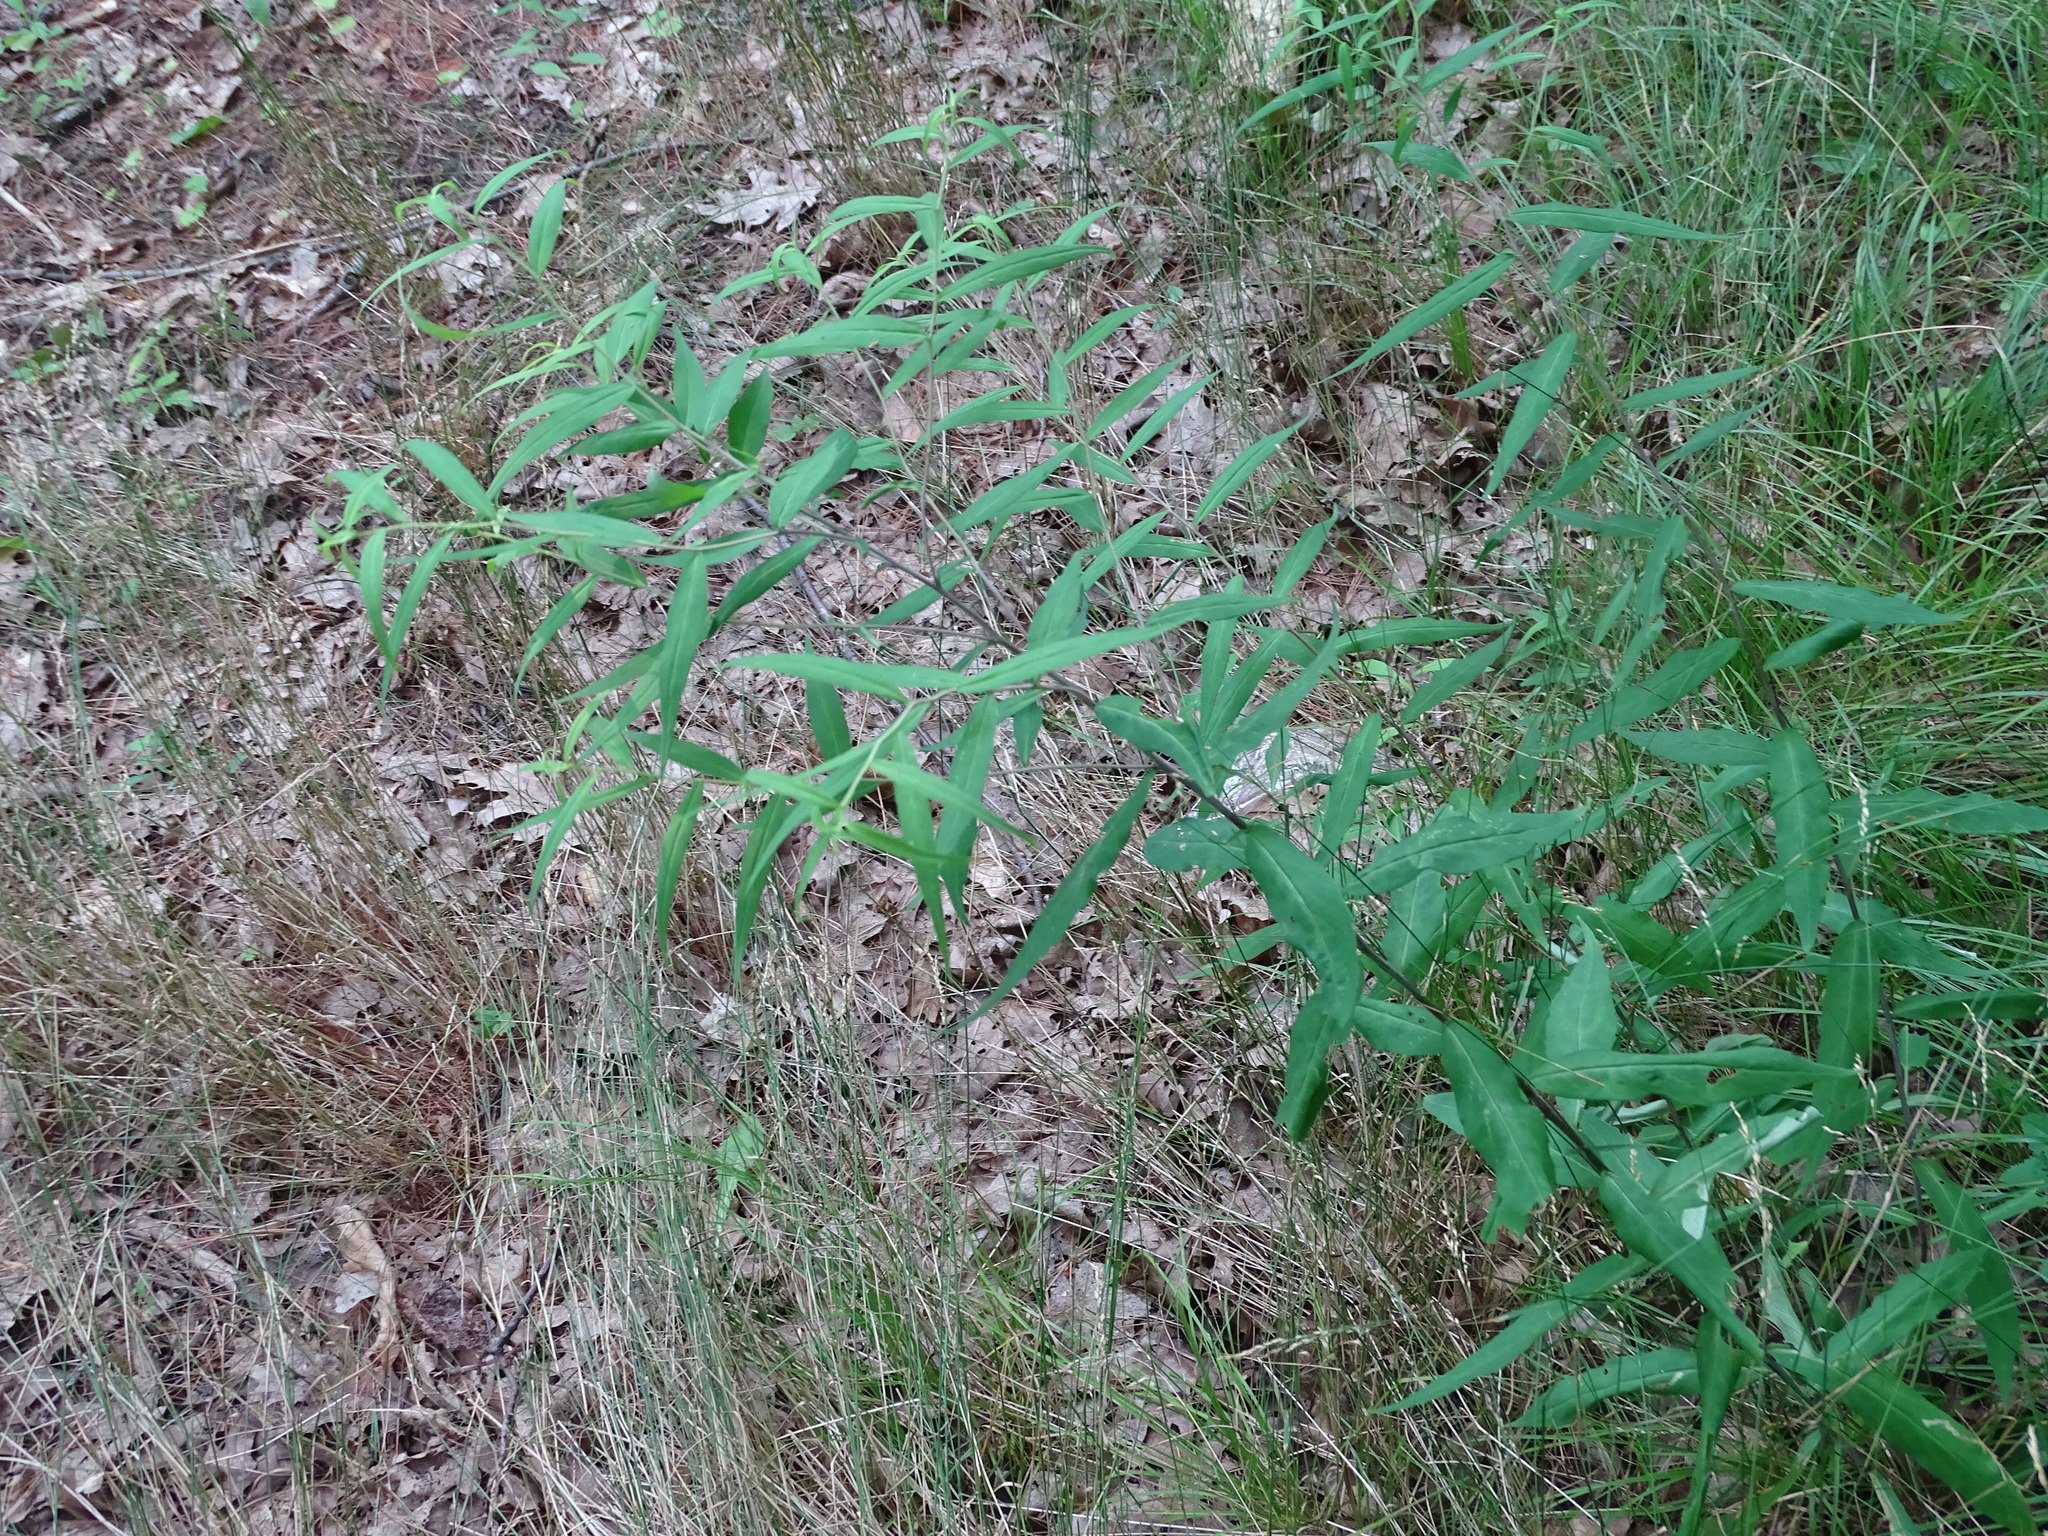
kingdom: Plantae
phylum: Tracheophyta
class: Magnoliopsida
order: Asterales
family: Asteraceae
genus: Solidago
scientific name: Solidago caesia
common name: Woodland goldenrod
